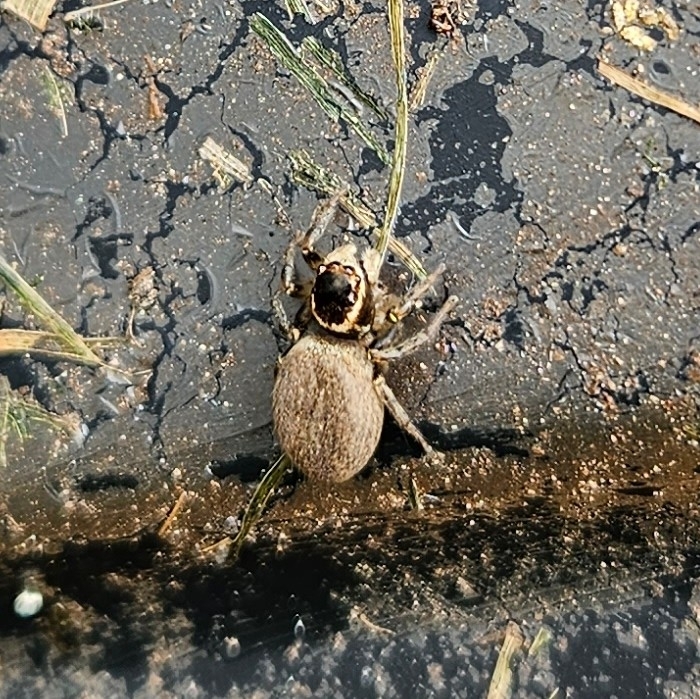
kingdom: Animalia
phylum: Arthropoda
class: Arachnida
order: Araneae
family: Salticidae
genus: Maratus
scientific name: Maratus griseus
